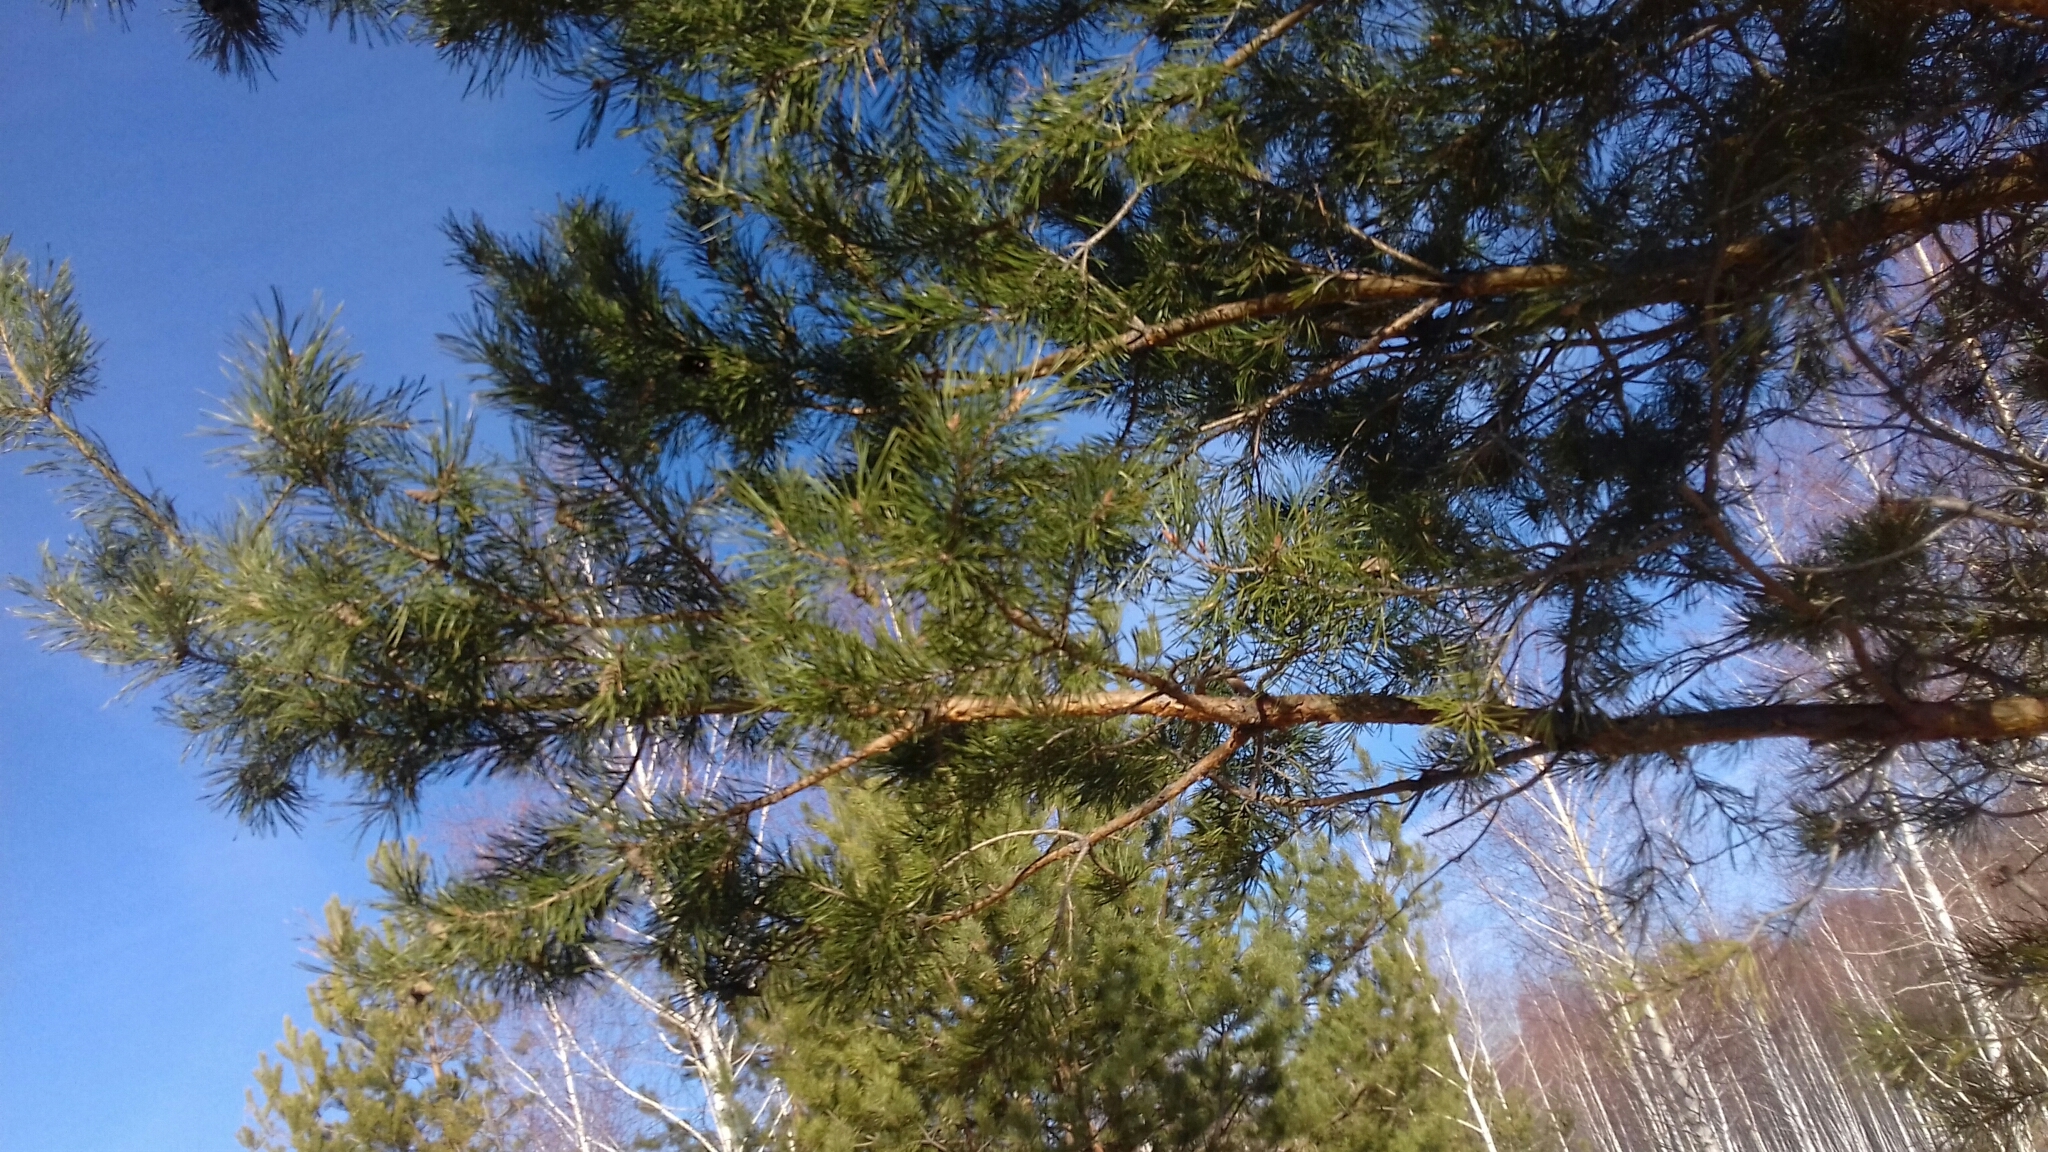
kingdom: Plantae
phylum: Tracheophyta
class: Pinopsida
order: Pinales
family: Pinaceae
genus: Pinus
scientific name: Pinus sylvestris
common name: Scots pine
